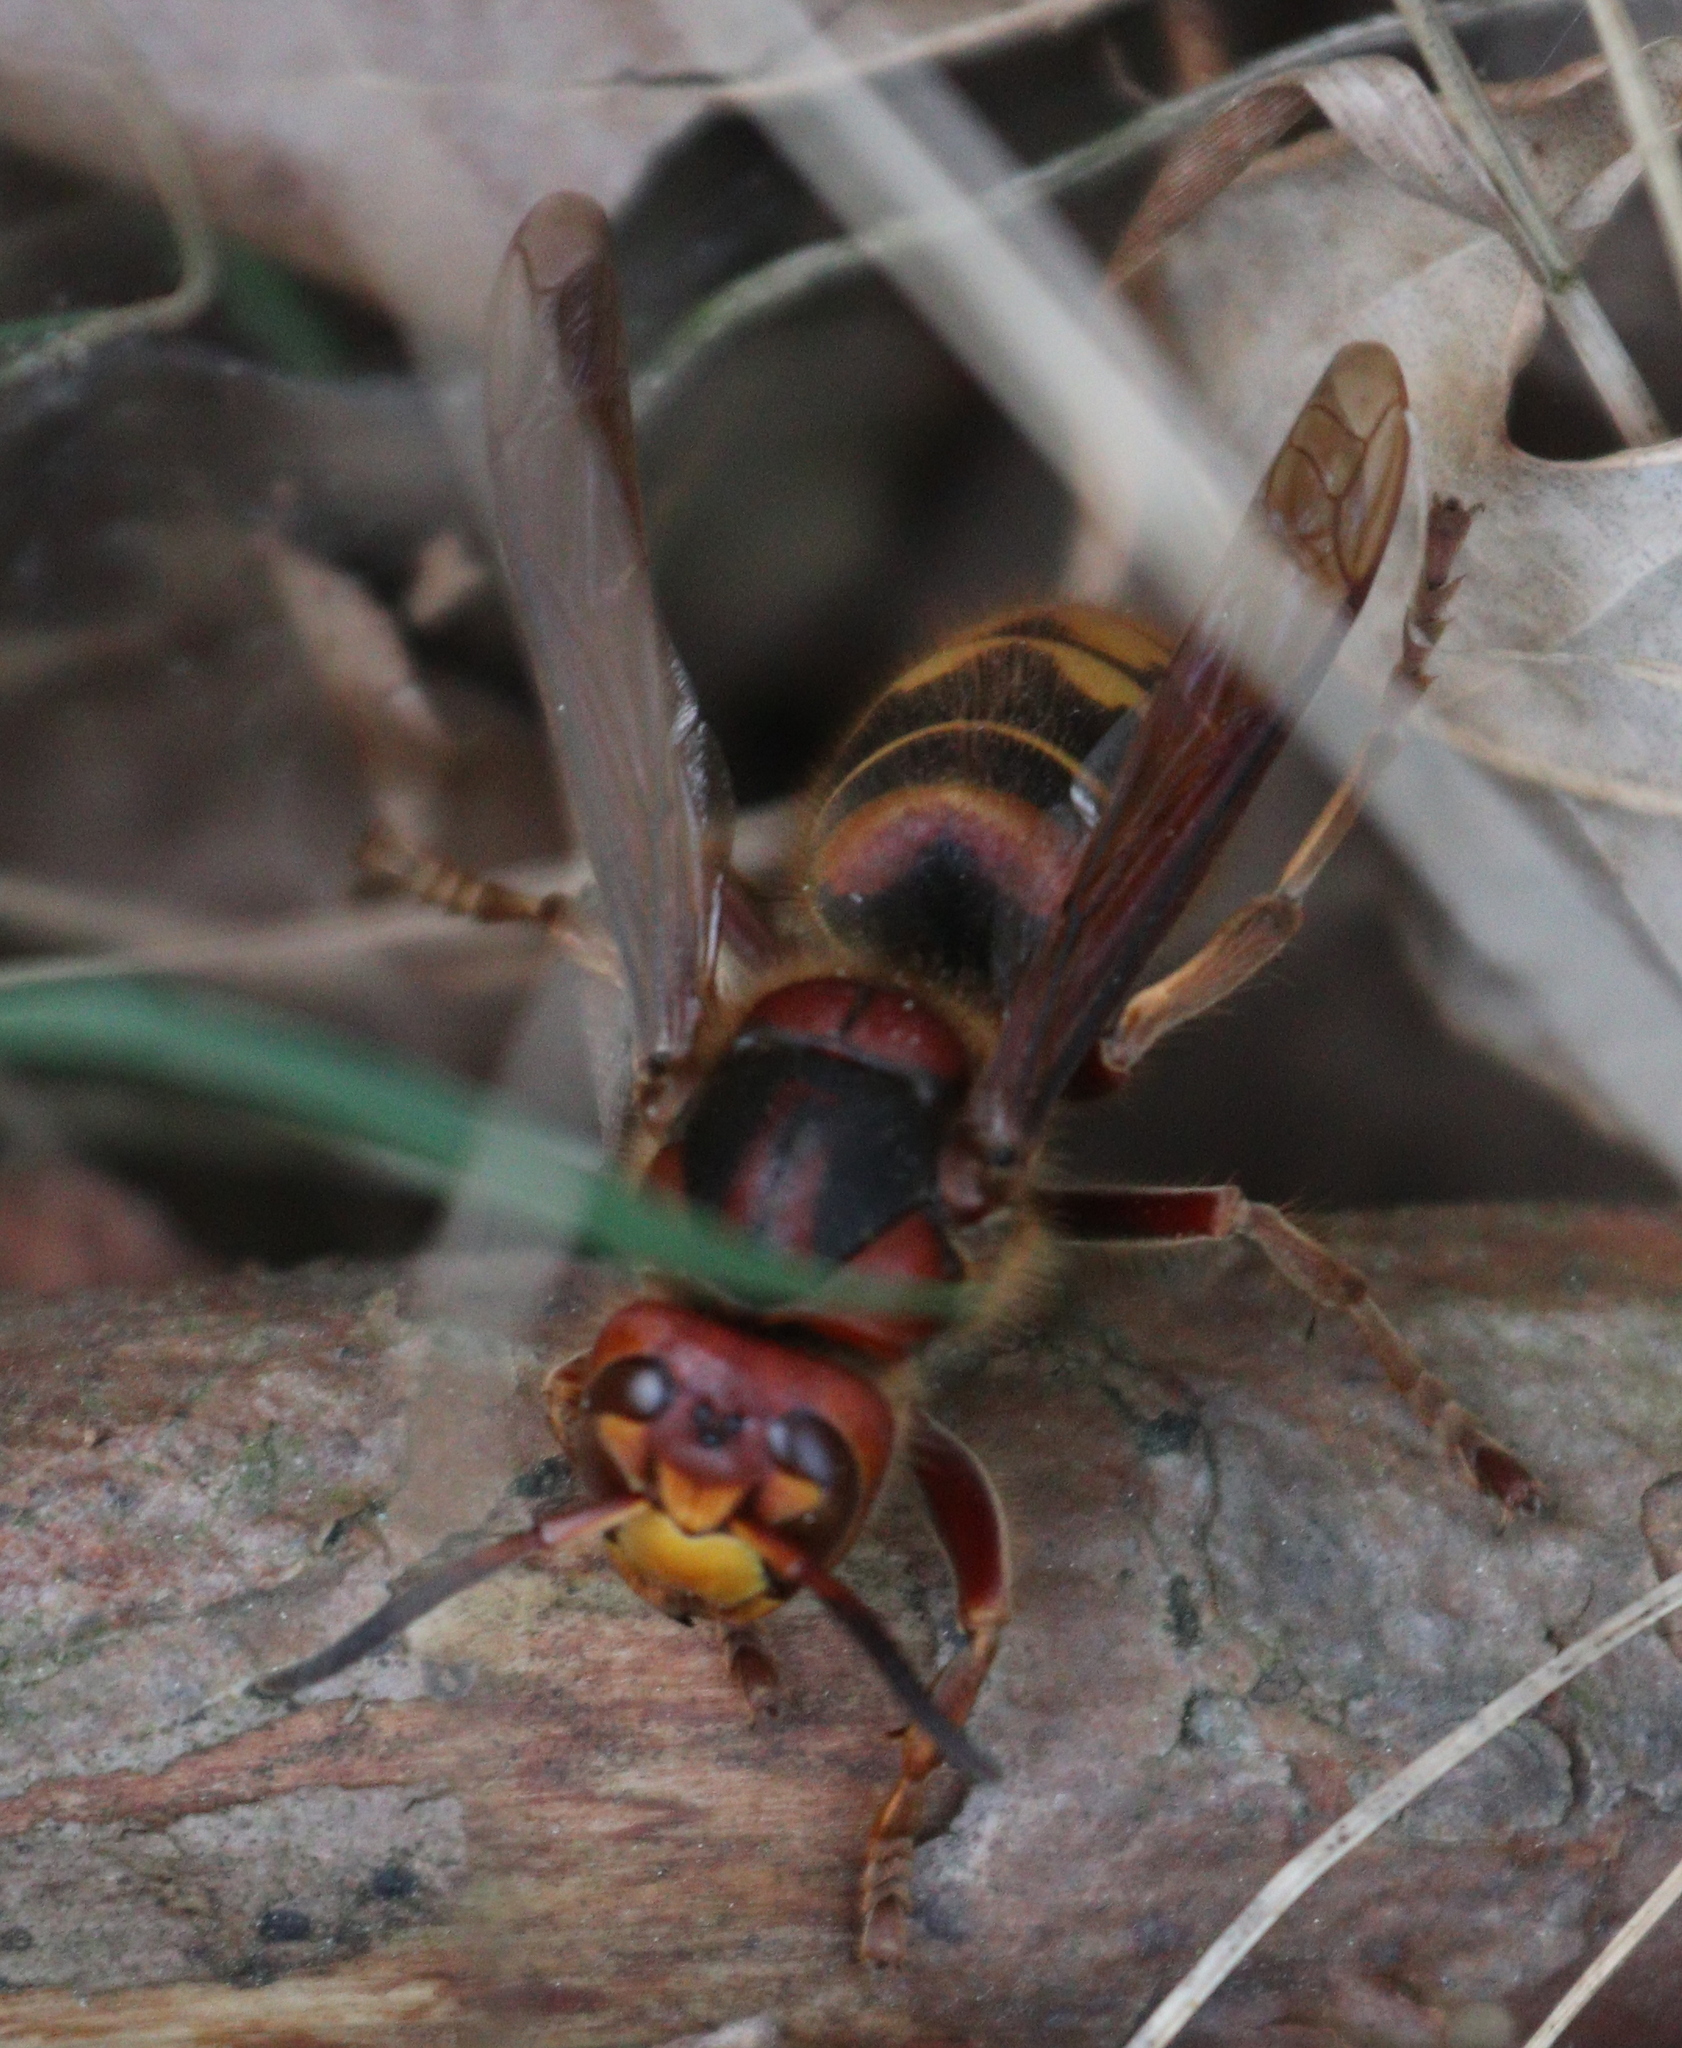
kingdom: Animalia
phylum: Arthropoda
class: Insecta
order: Hymenoptera
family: Vespidae
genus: Vespa
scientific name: Vespa crabro
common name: Hornet
